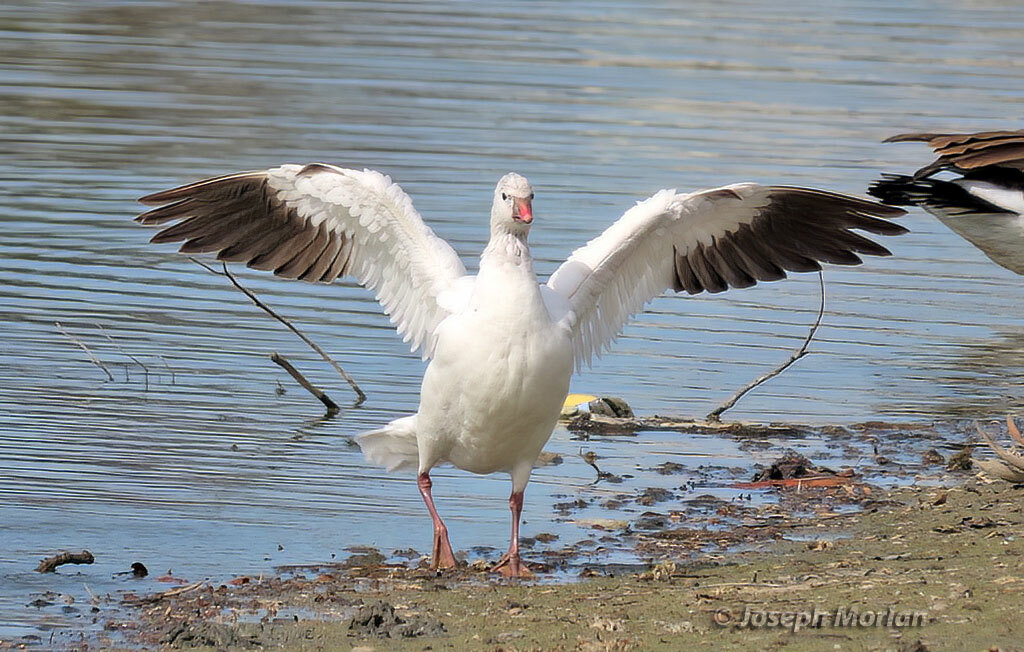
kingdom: Animalia
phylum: Chordata
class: Aves
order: Anseriformes
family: Anatidae
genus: Anser
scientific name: Anser rossii
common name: Ross's goose
